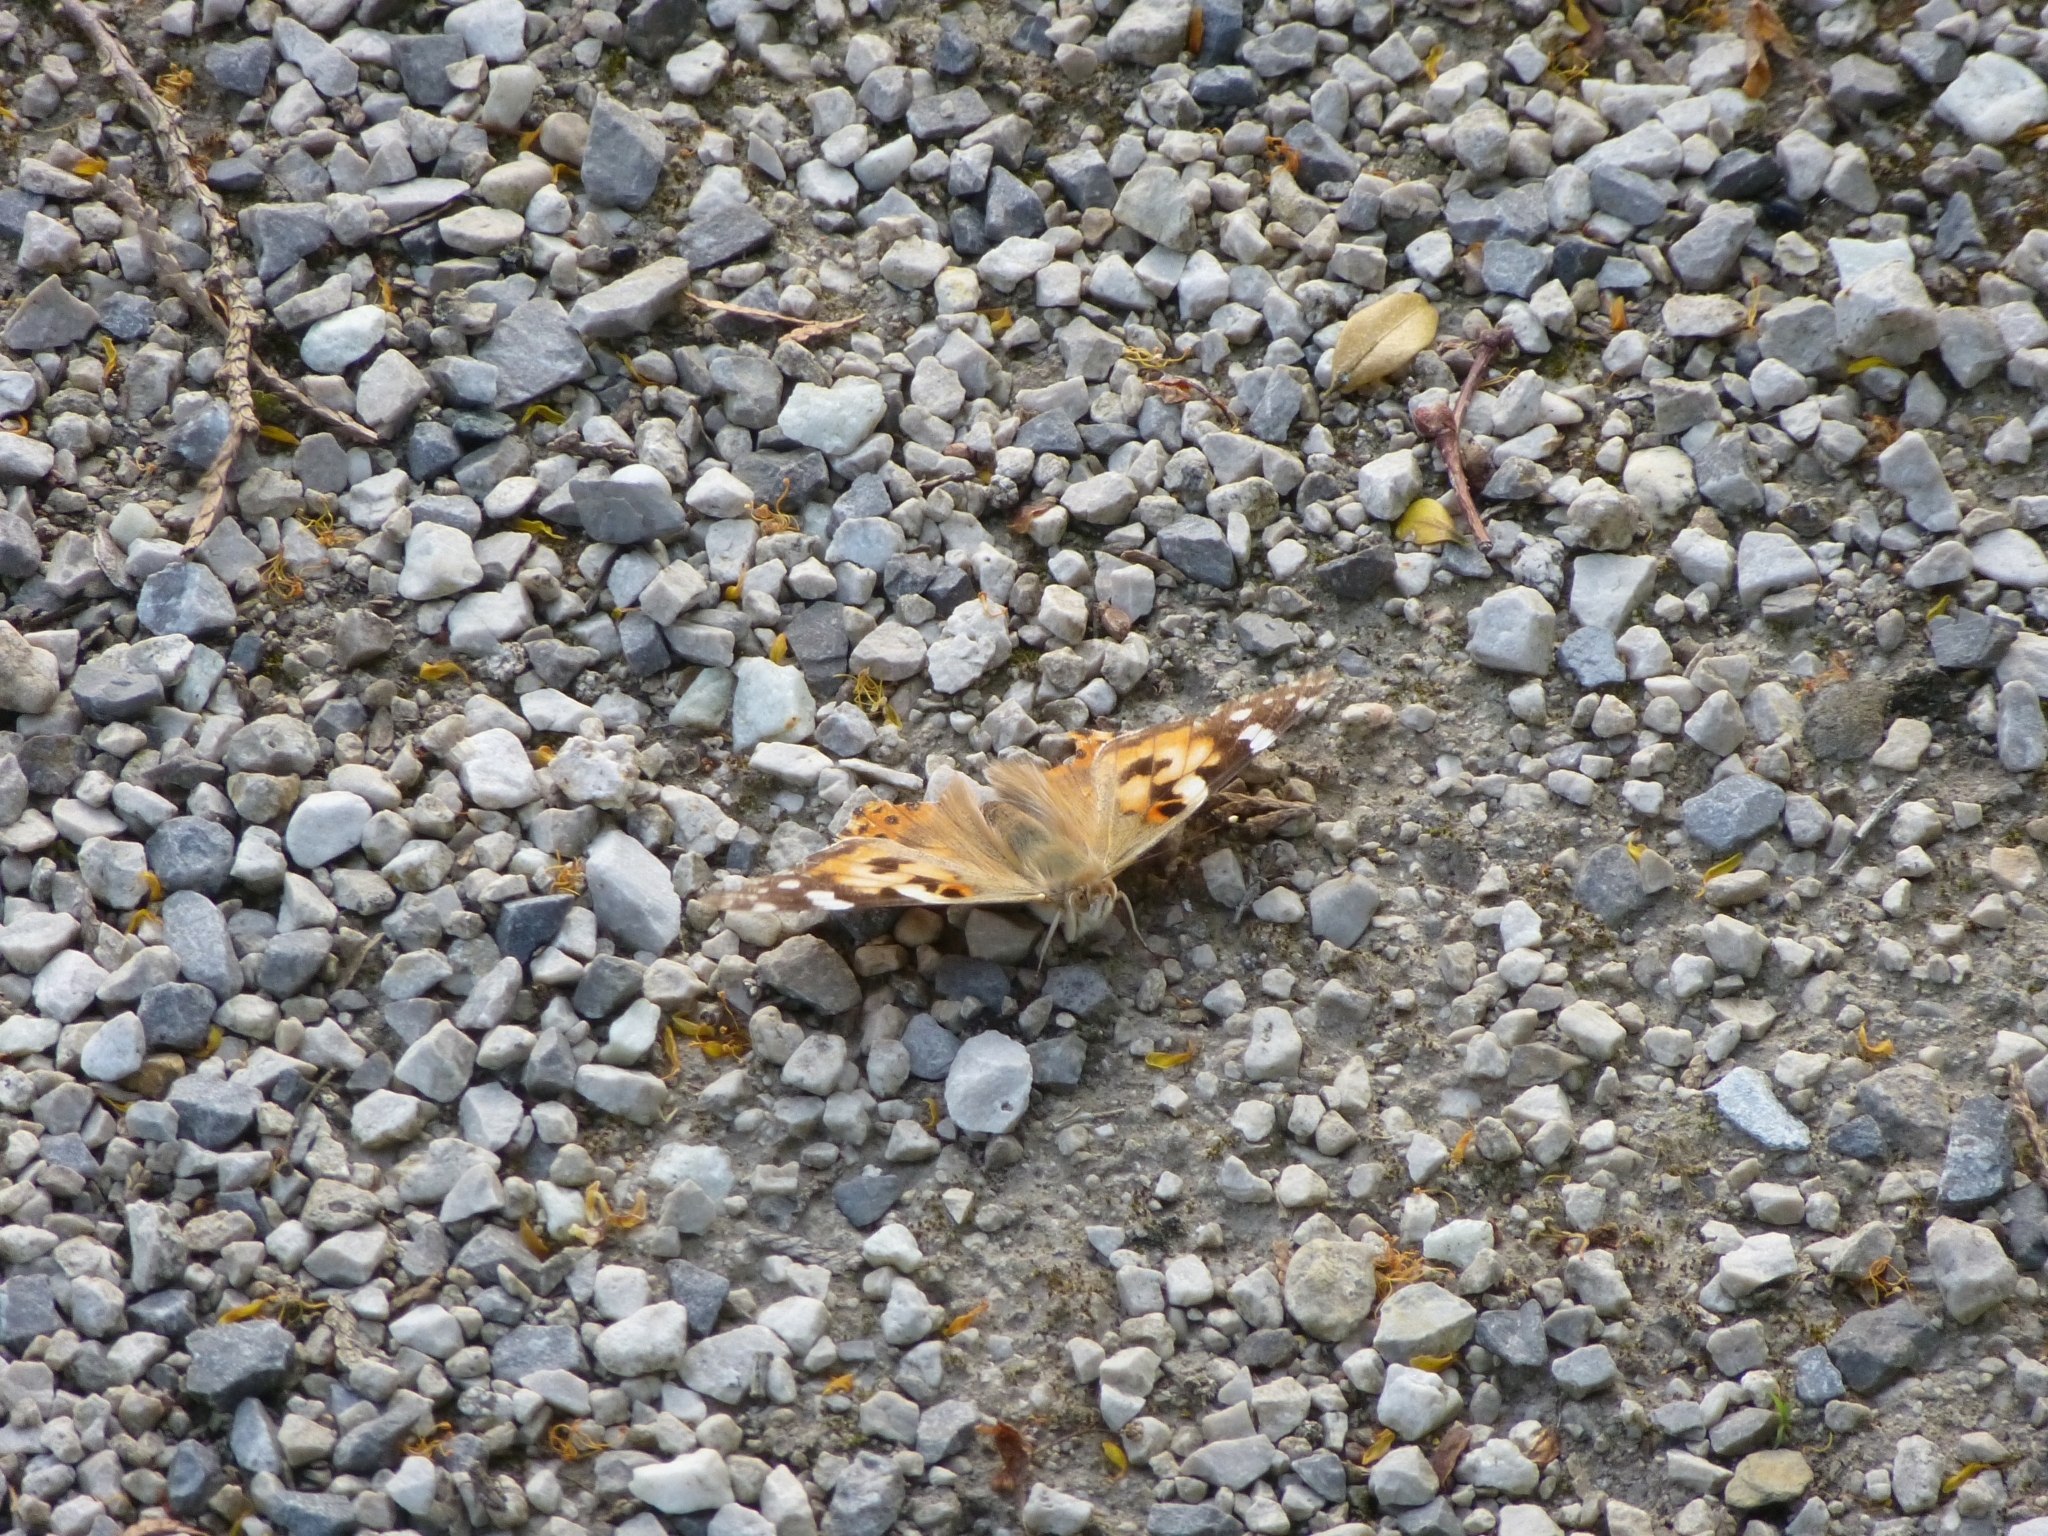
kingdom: Animalia
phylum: Arthropoda
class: Insecta
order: Lepidoptera
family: Nymphalidae
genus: Vanessa
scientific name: Vanessa cardui
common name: Painted lady
